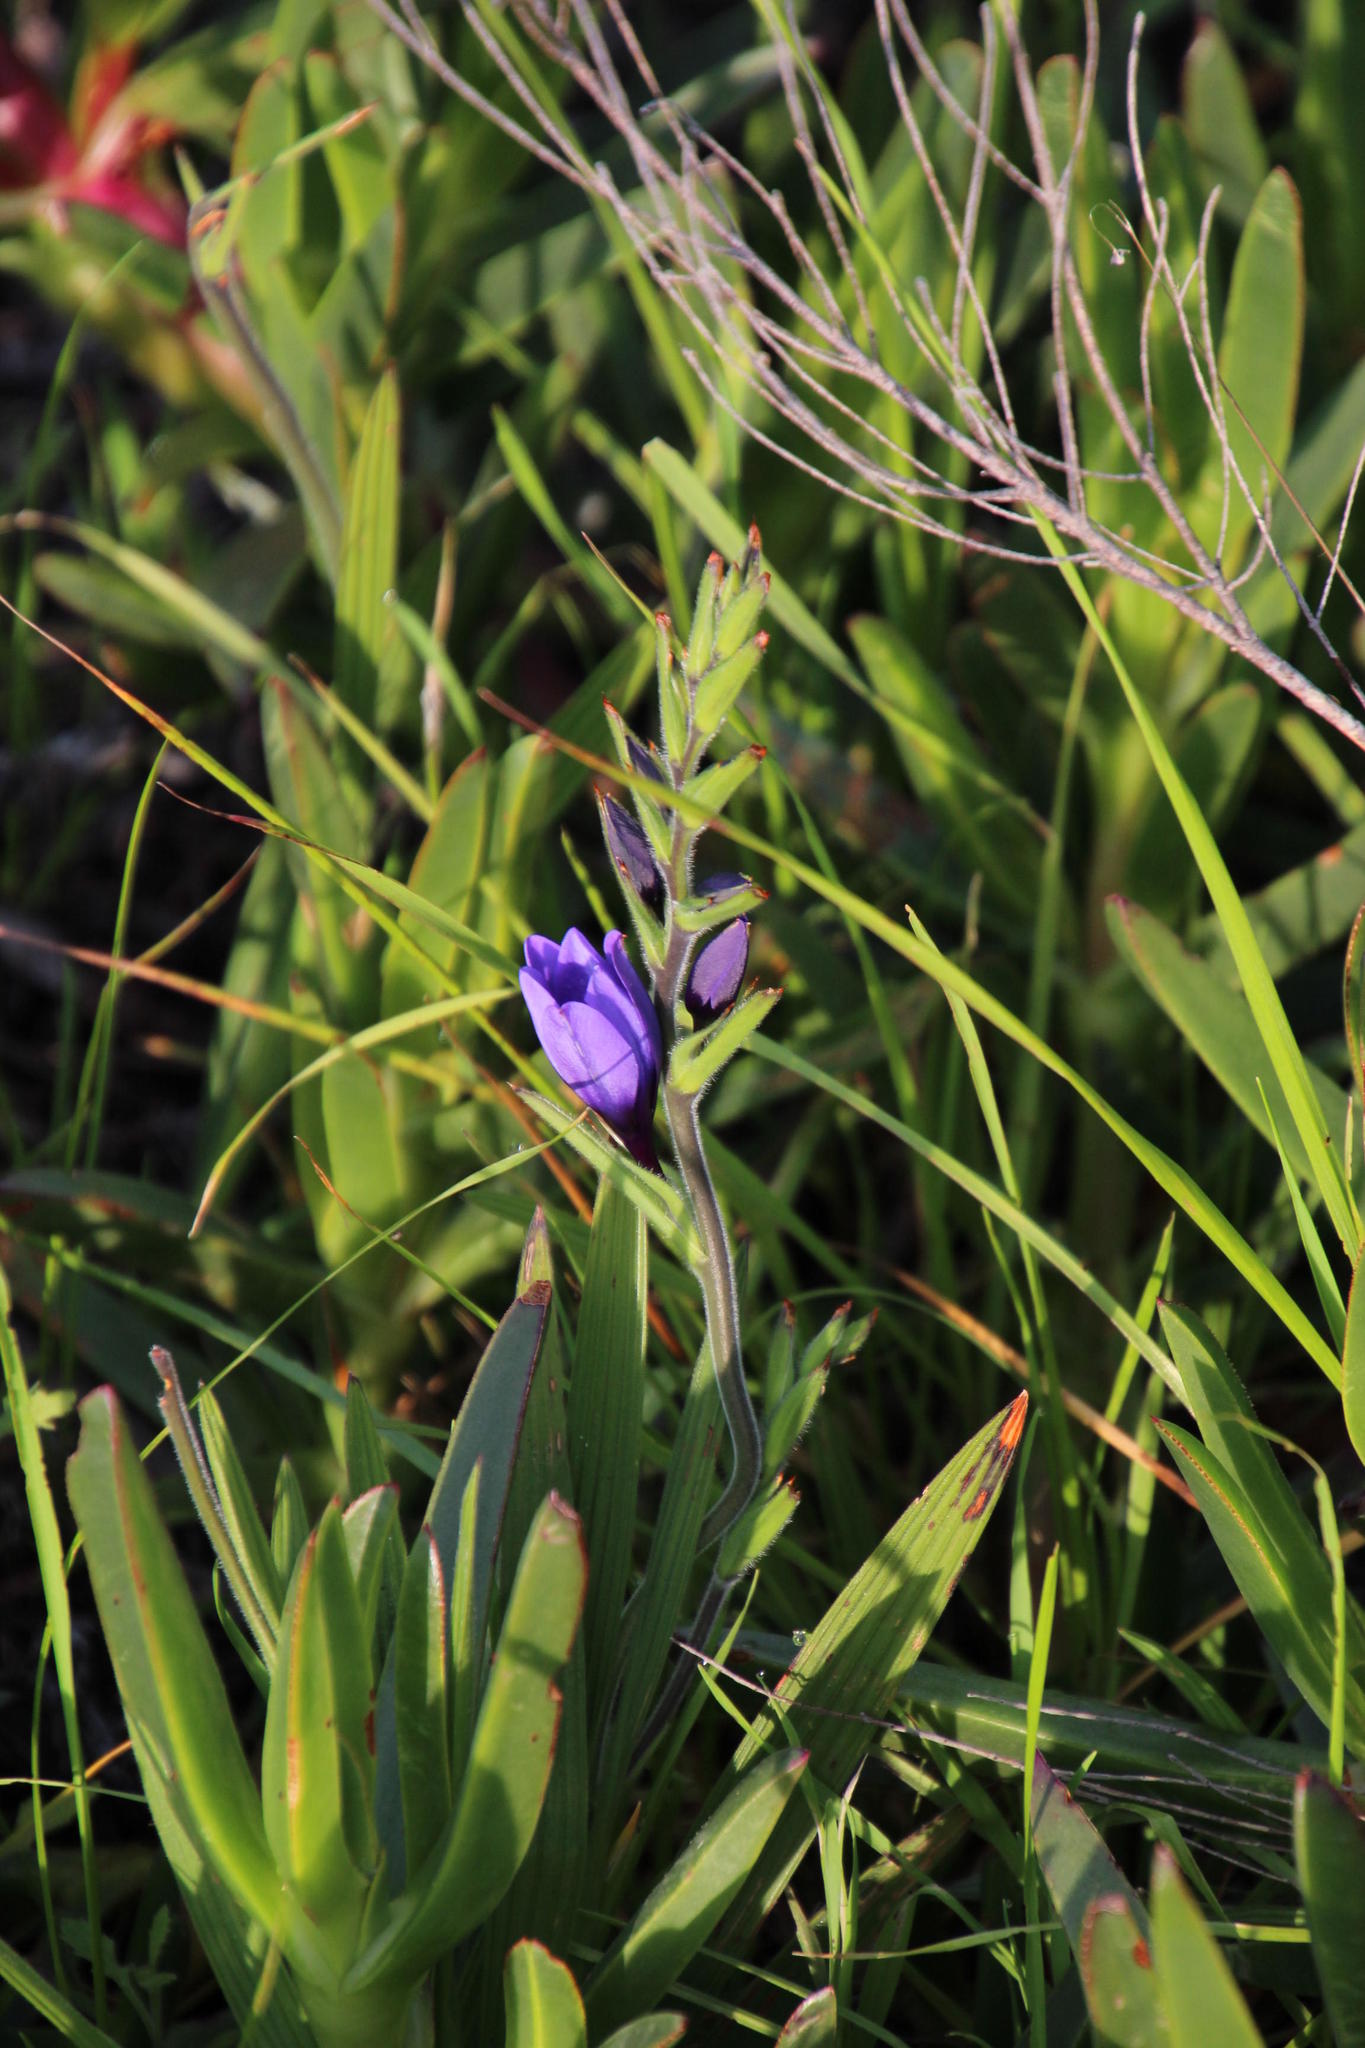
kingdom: Plantae
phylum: Tracheophyta
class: Liliopsida
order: Asparagales
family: Iridaceae
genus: Babiana
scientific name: Babiana fragrans
